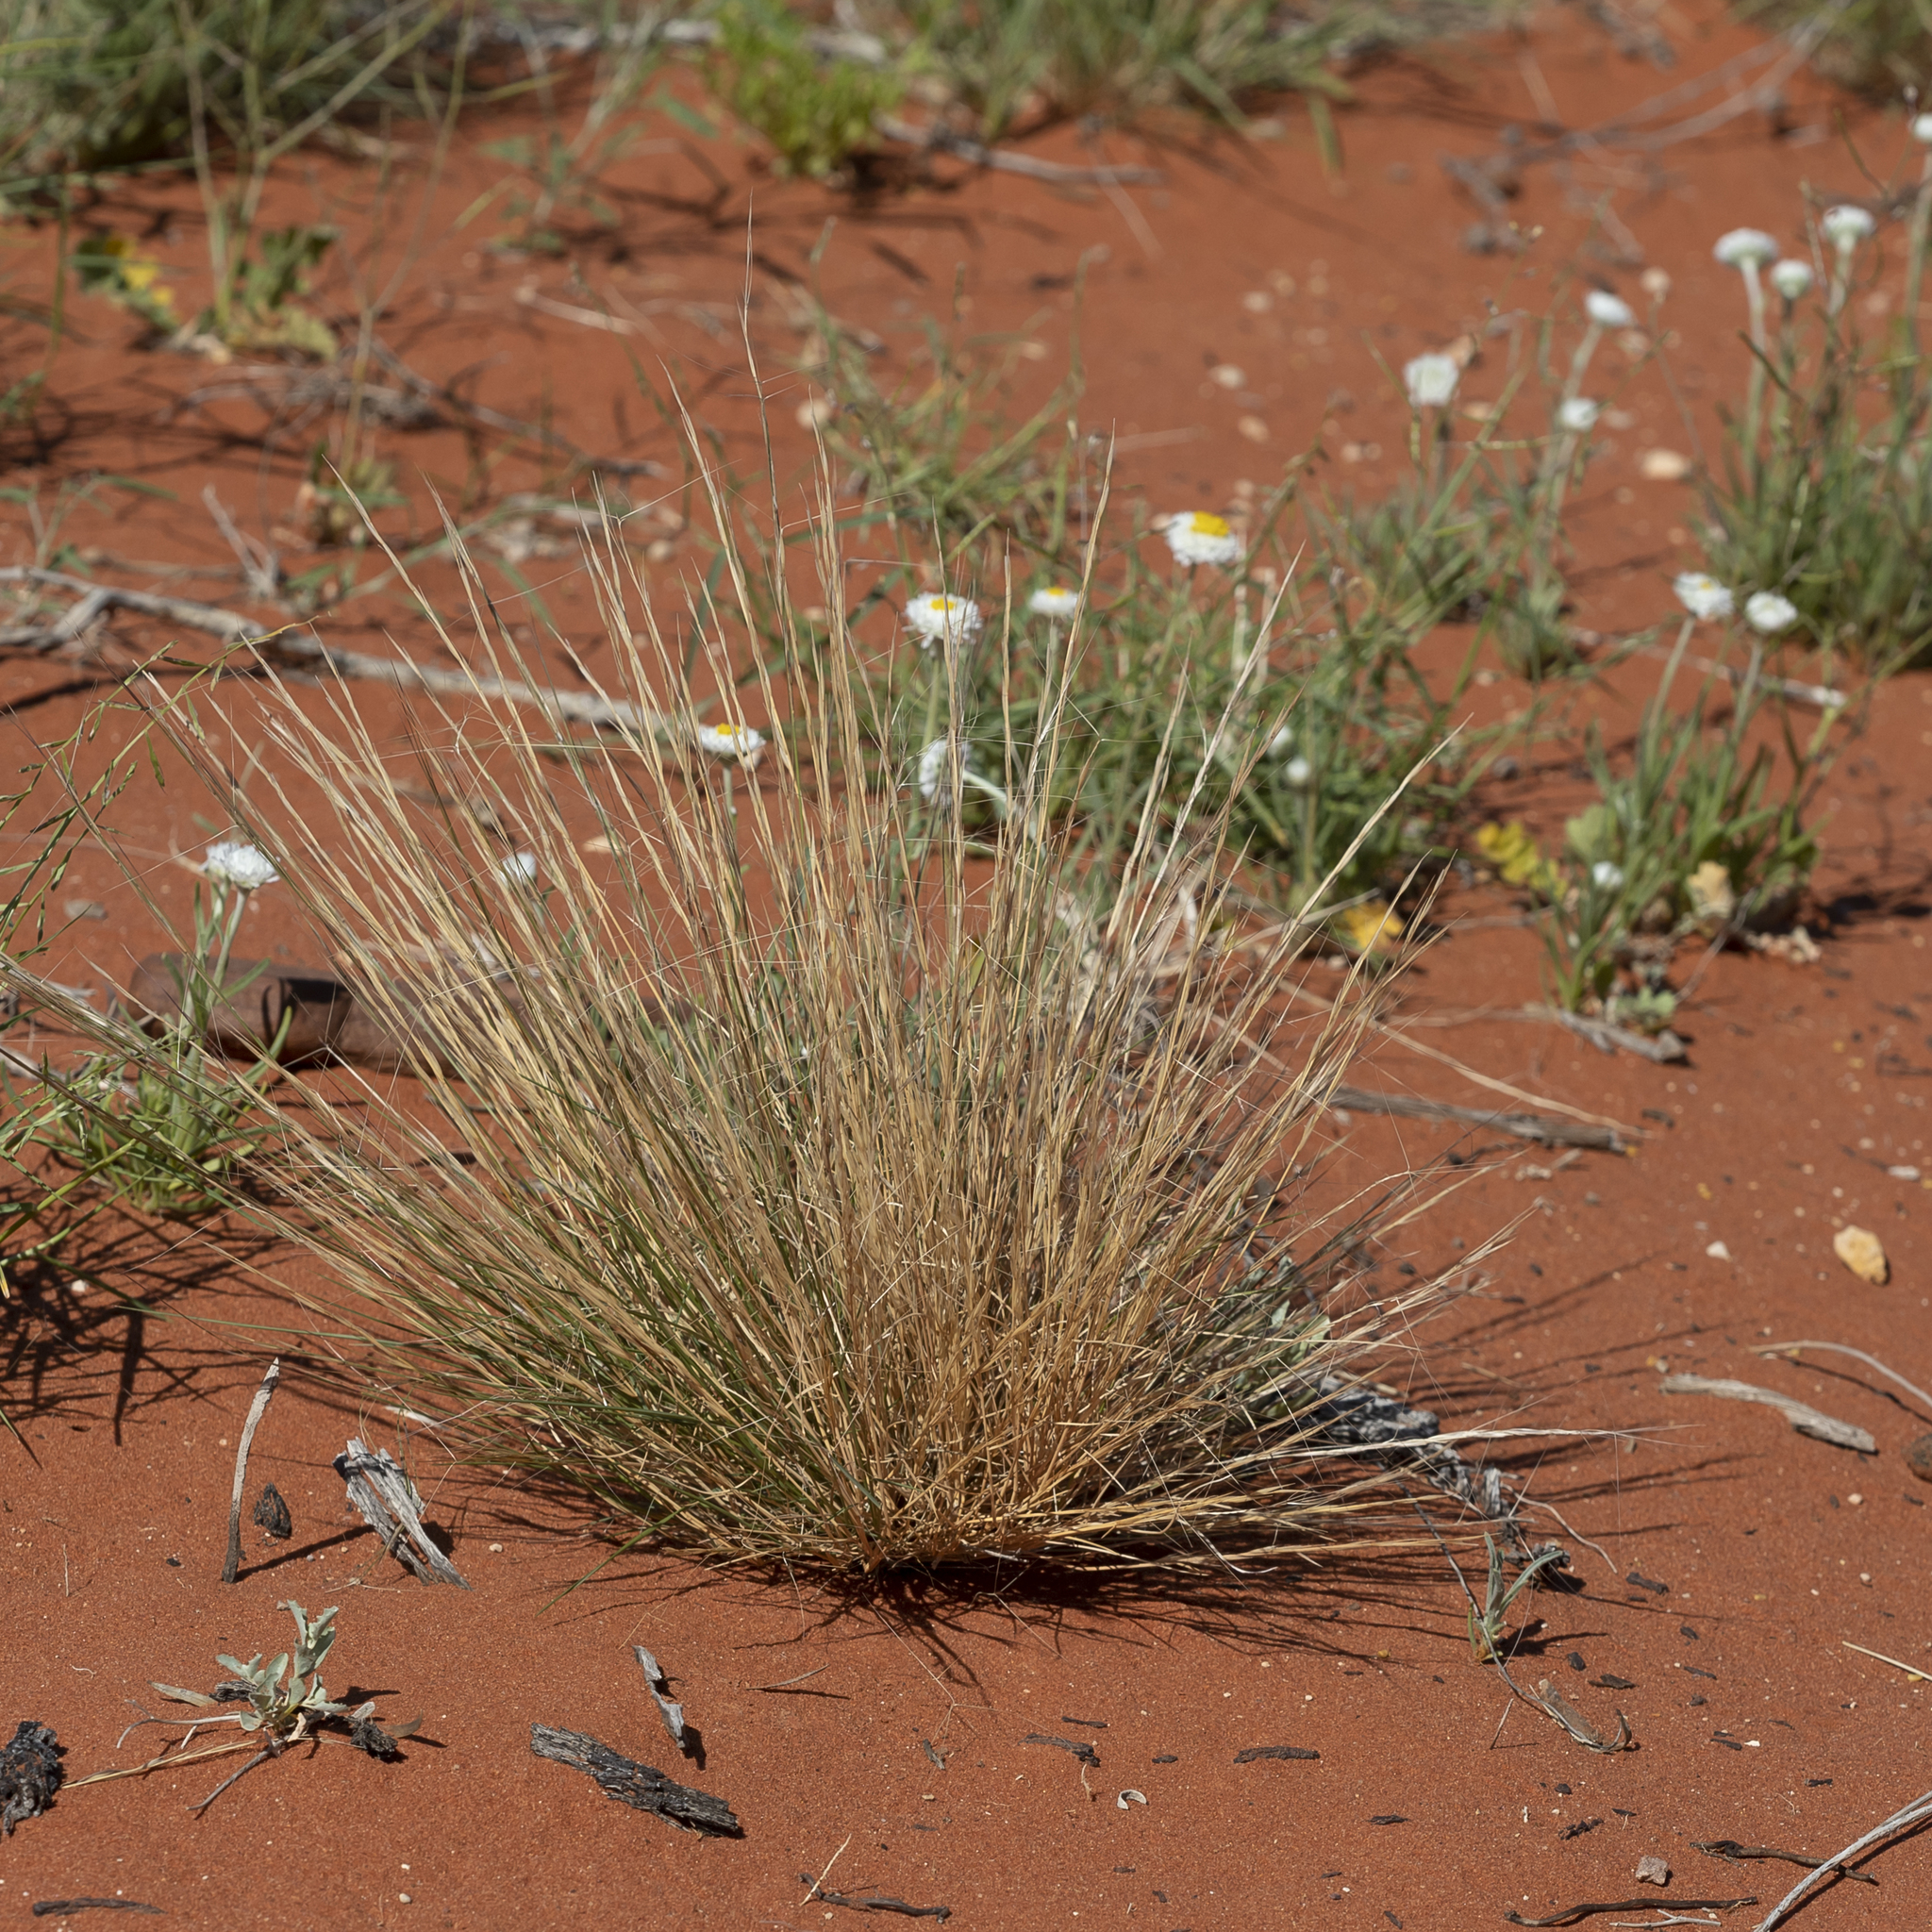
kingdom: Plantae
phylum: Tracheophyta
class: Liliopsida
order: Poales
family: Poaceae
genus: Aristida
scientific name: Aristida holathera
